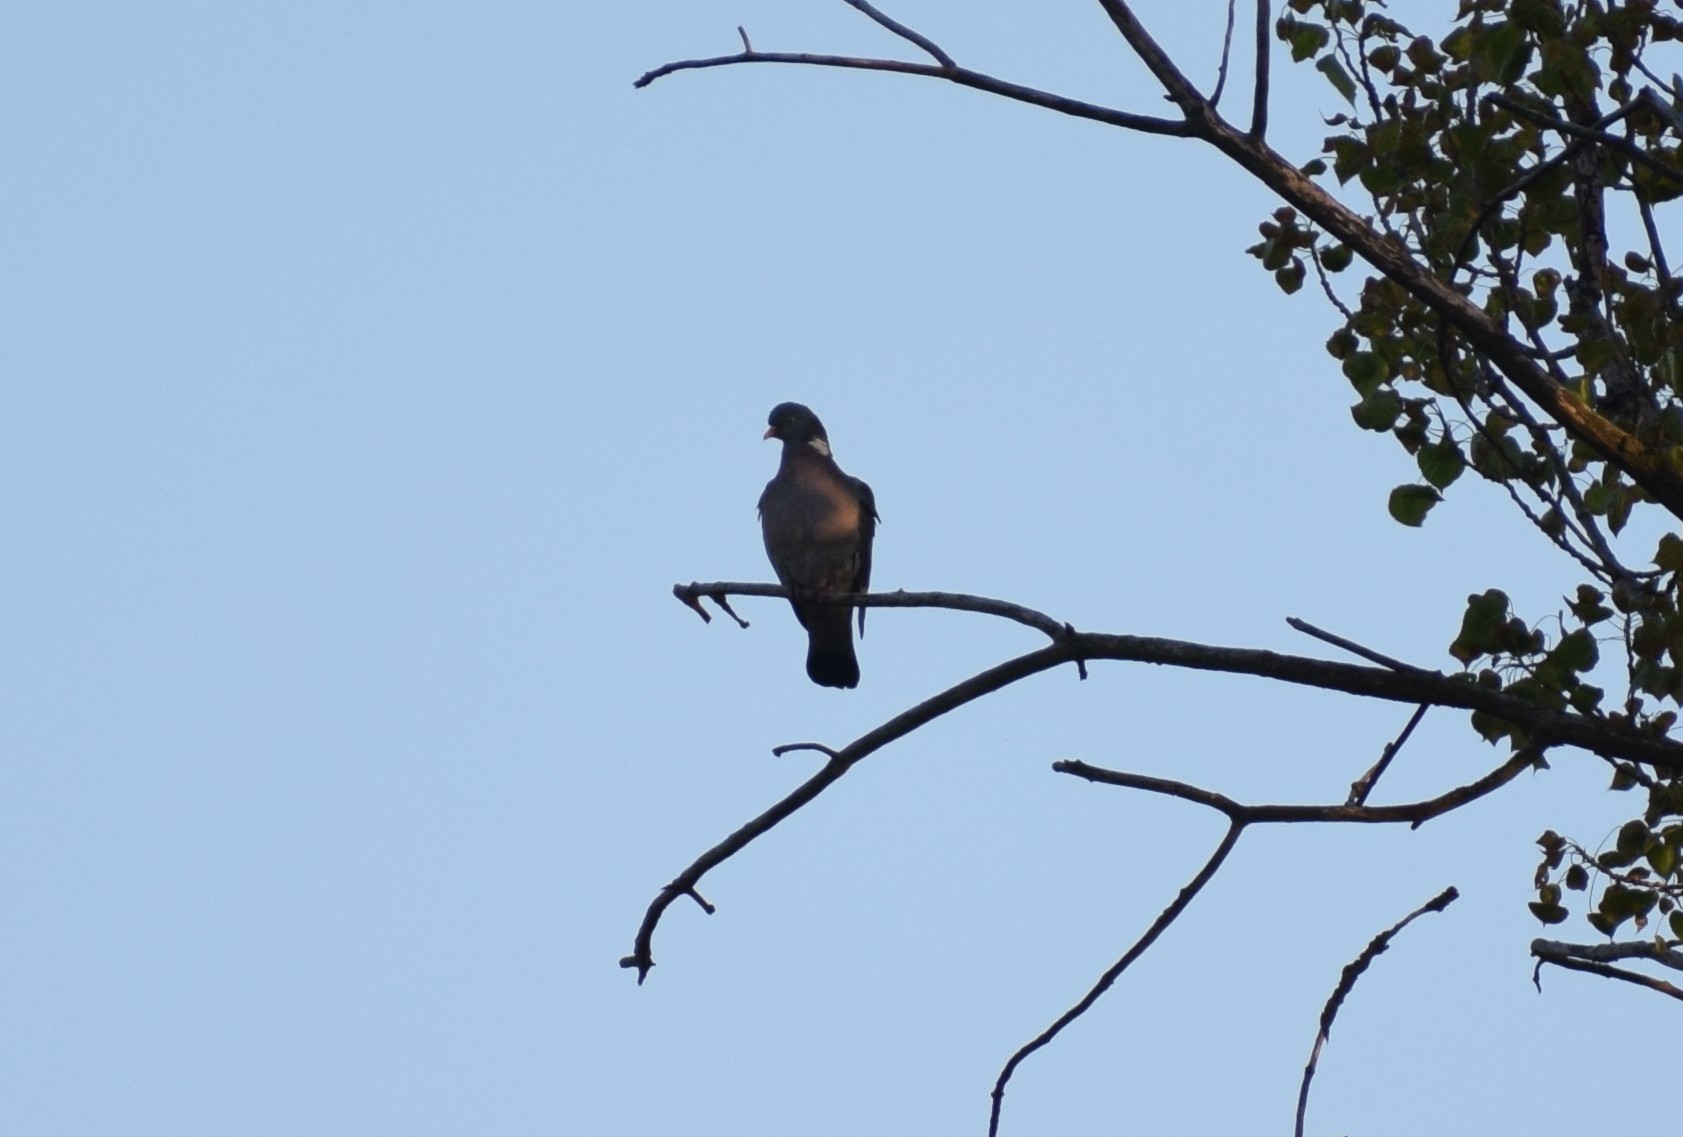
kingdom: Animalia
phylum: Chordata
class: Aves
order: Columbiformes
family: Columbidae
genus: Columba
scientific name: Columba palumbus
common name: Common wood pigeon
